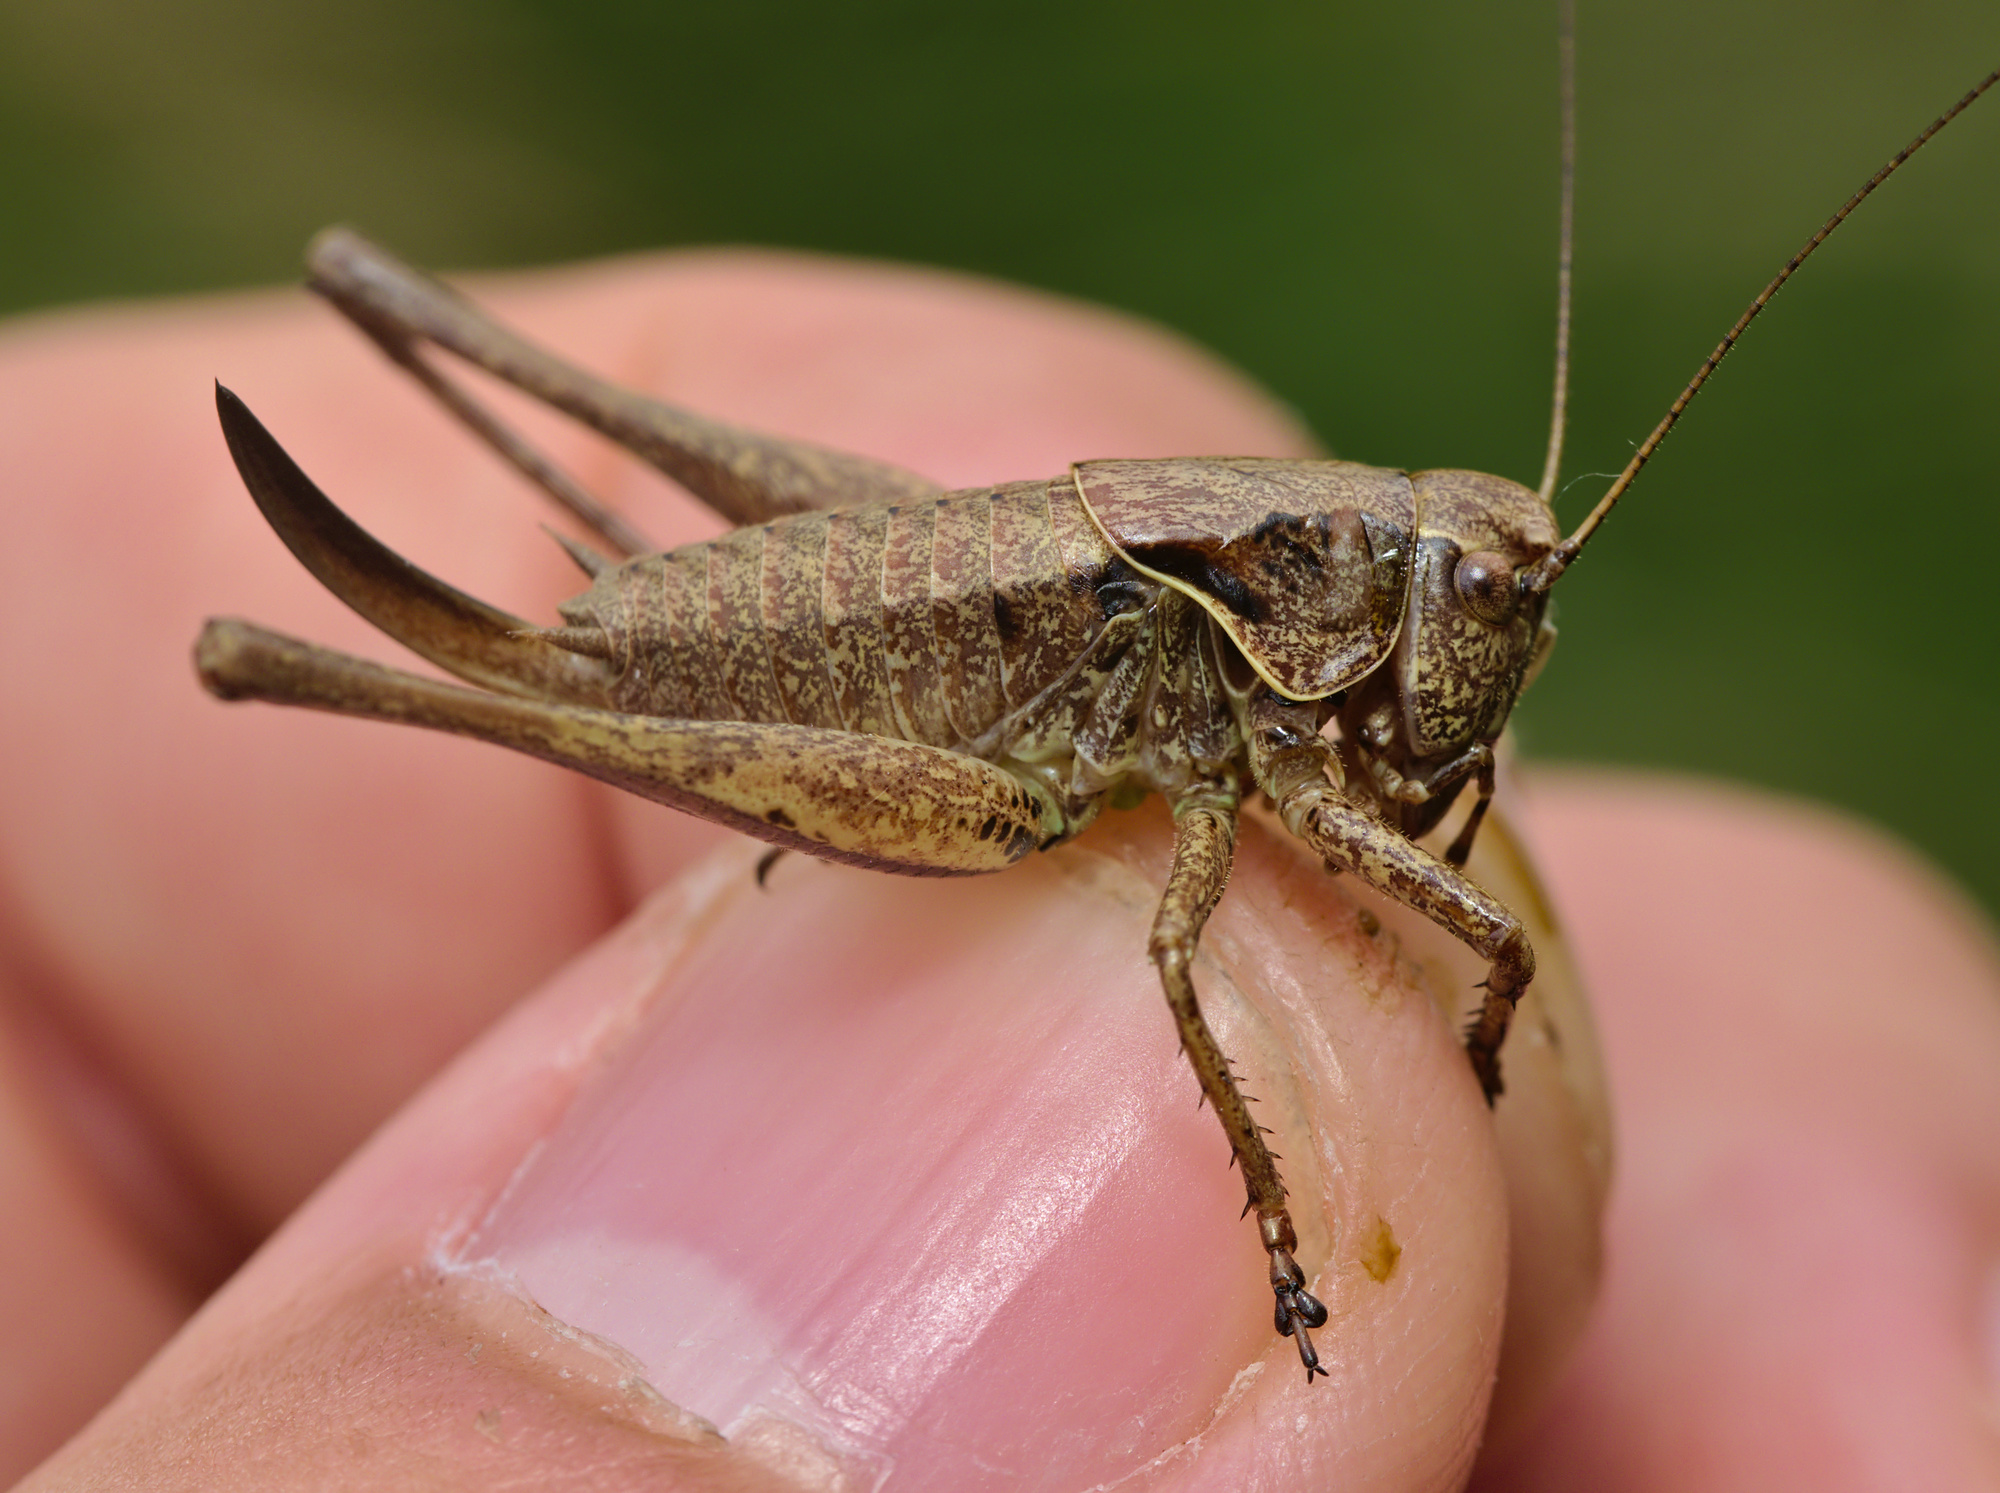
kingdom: Animalia
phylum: Arthropoda
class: Insecta
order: Orthoptera
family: Tettigoniidae
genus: Pholidoptera
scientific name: Pholidoptera griseoaptera
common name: Dark bush-cricket
